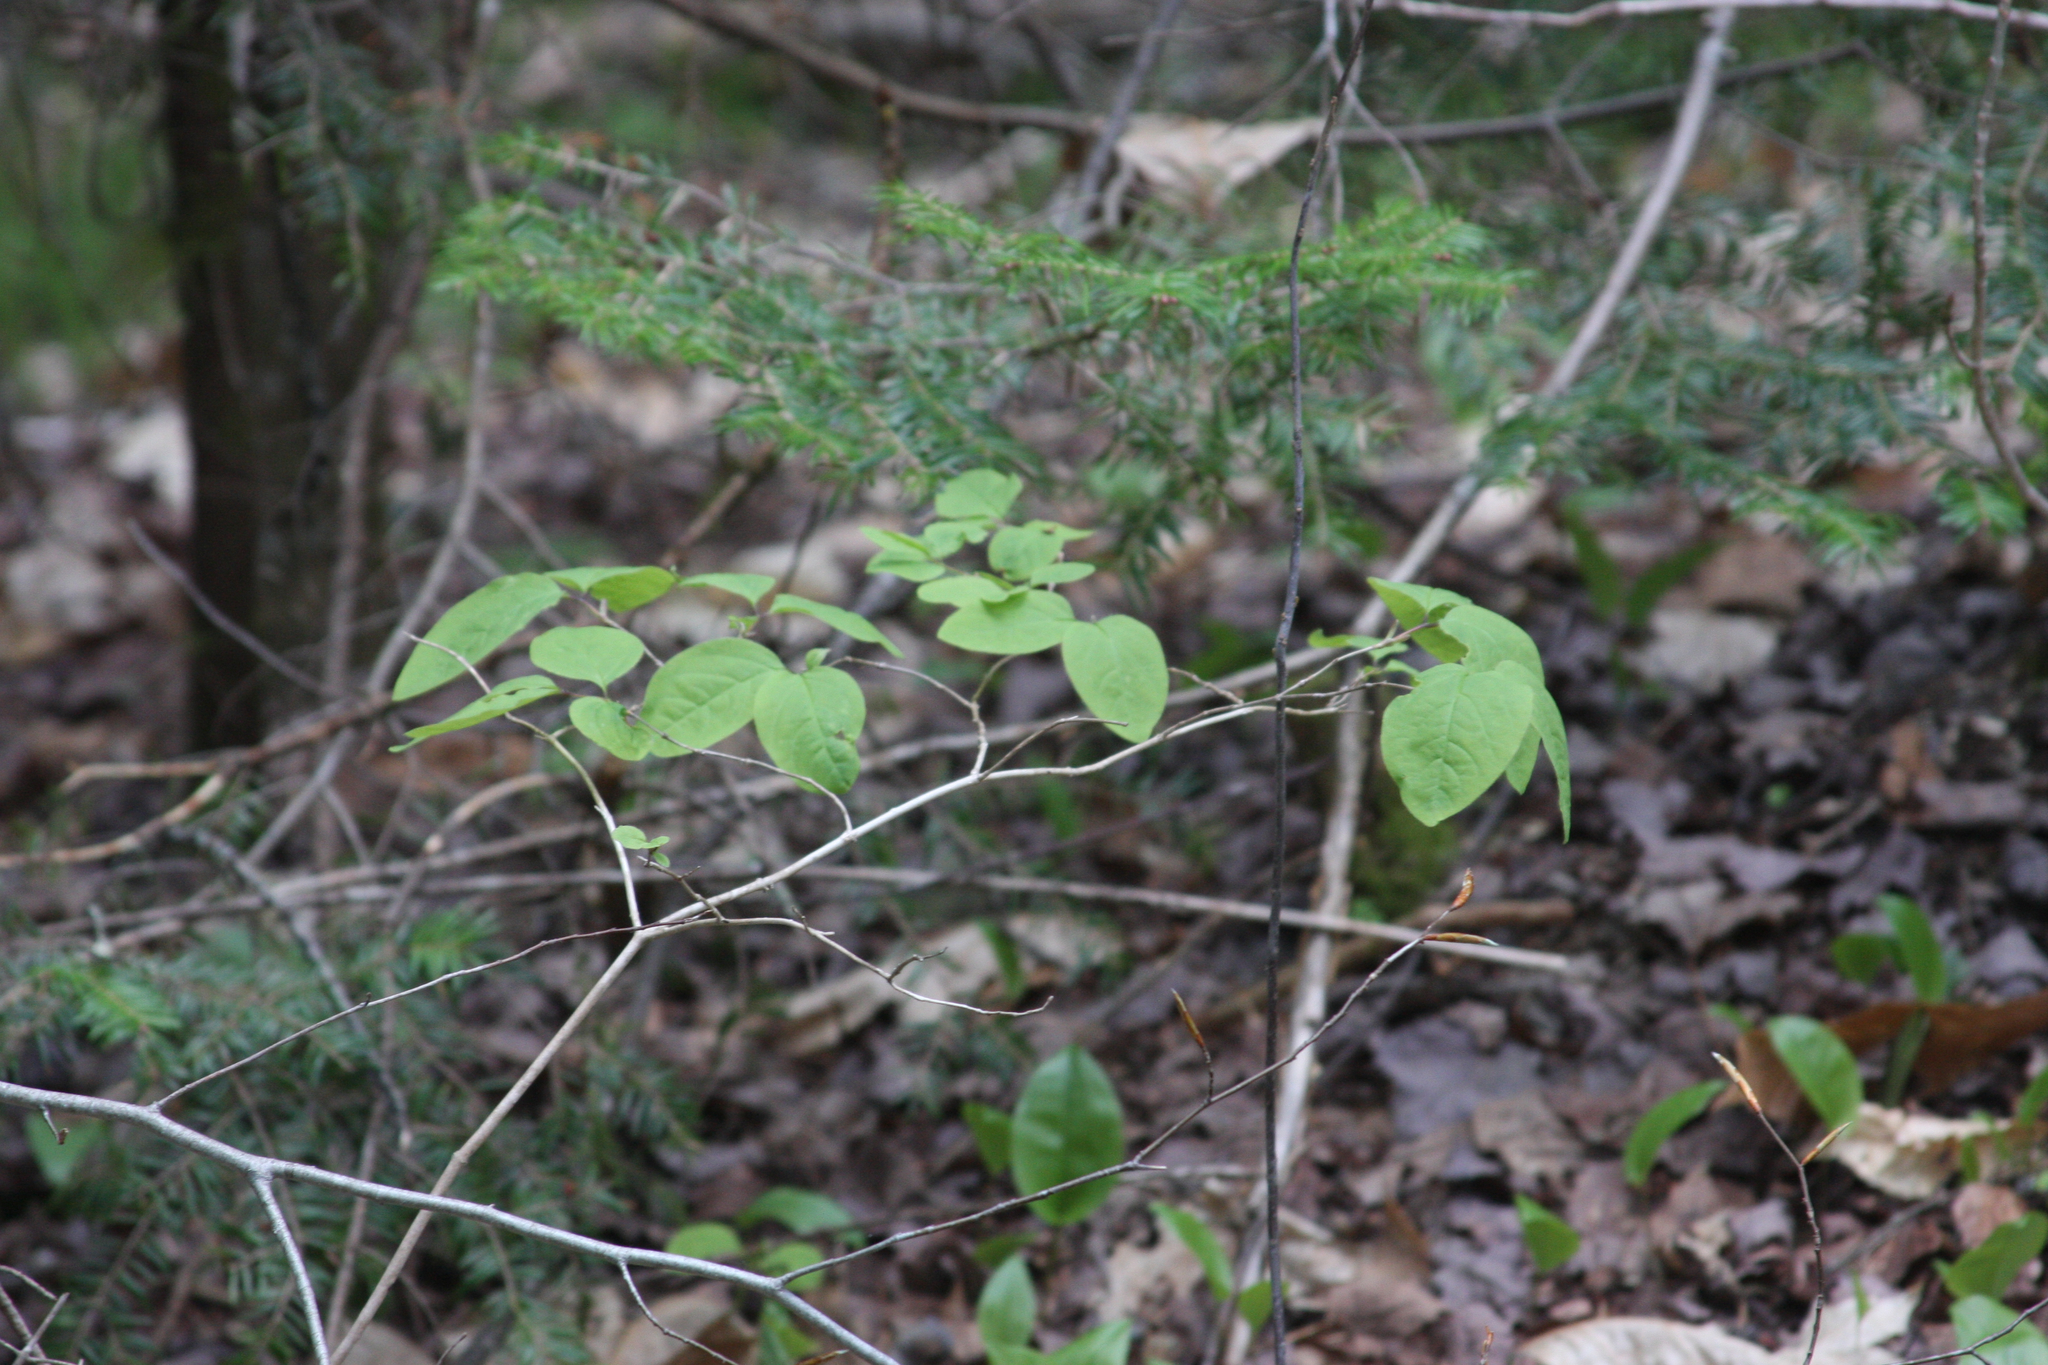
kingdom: Plantae
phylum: Tracheophyta
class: Magnoliopsida
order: Dipsacales
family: Caprifoliaceae
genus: Lonicera
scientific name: Lonicera canadensis
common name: American fly-honeysuckle
